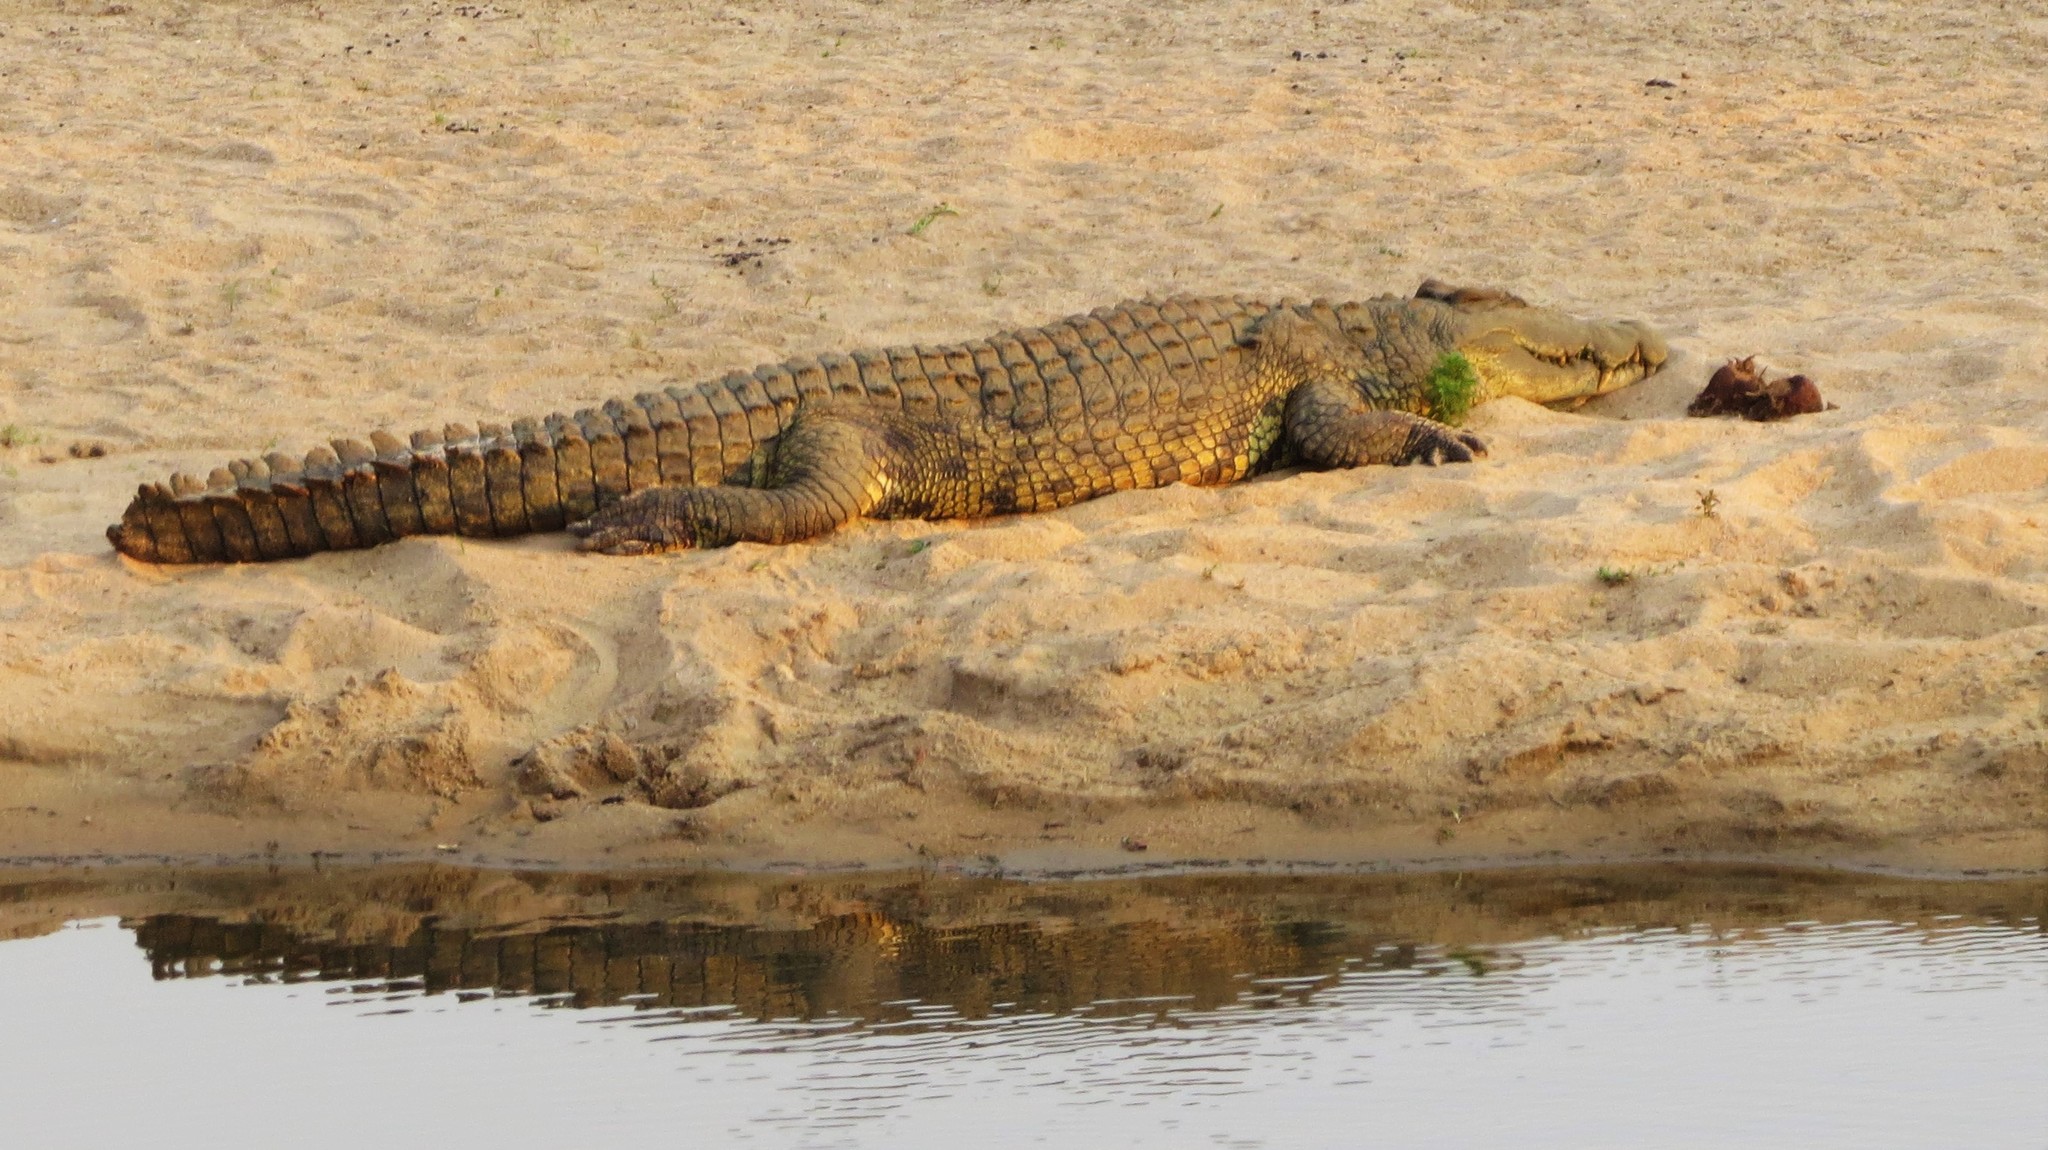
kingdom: Animalia
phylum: Chordata
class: Crocodylia
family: Crocodylidae
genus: Crocodylus
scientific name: Crocodylus niloticus
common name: Nile crocodile
